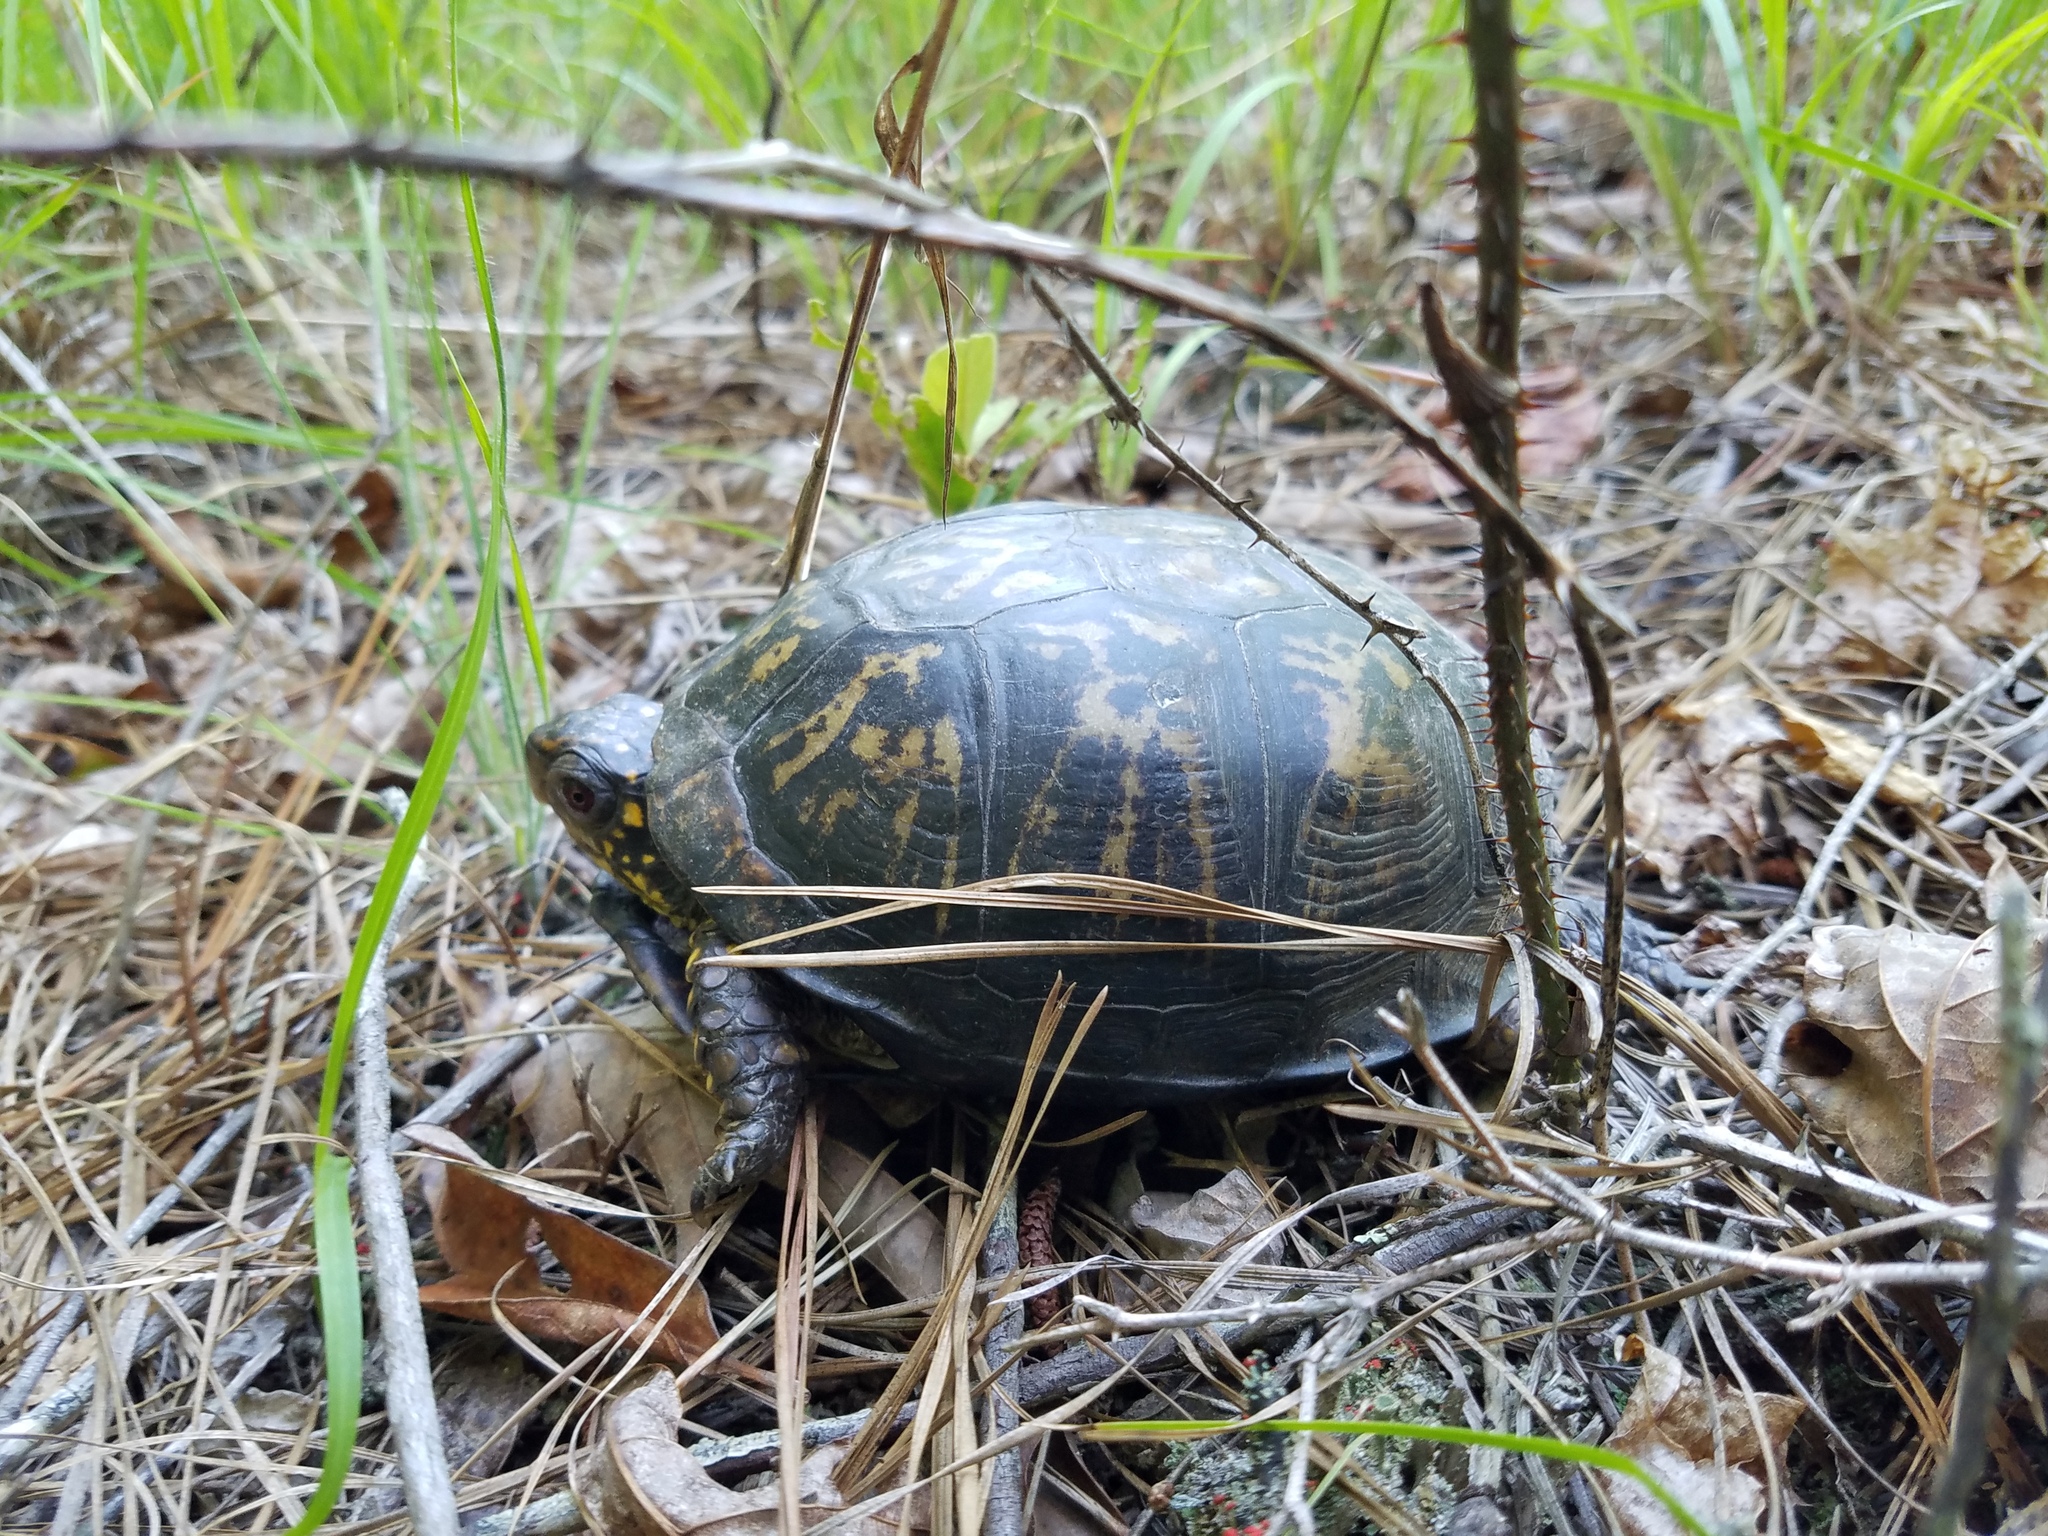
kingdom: Animalia
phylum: Chordata
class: Testudines
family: Emydidae
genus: Terrapene
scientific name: Terrapene carolina
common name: Common box turtle
